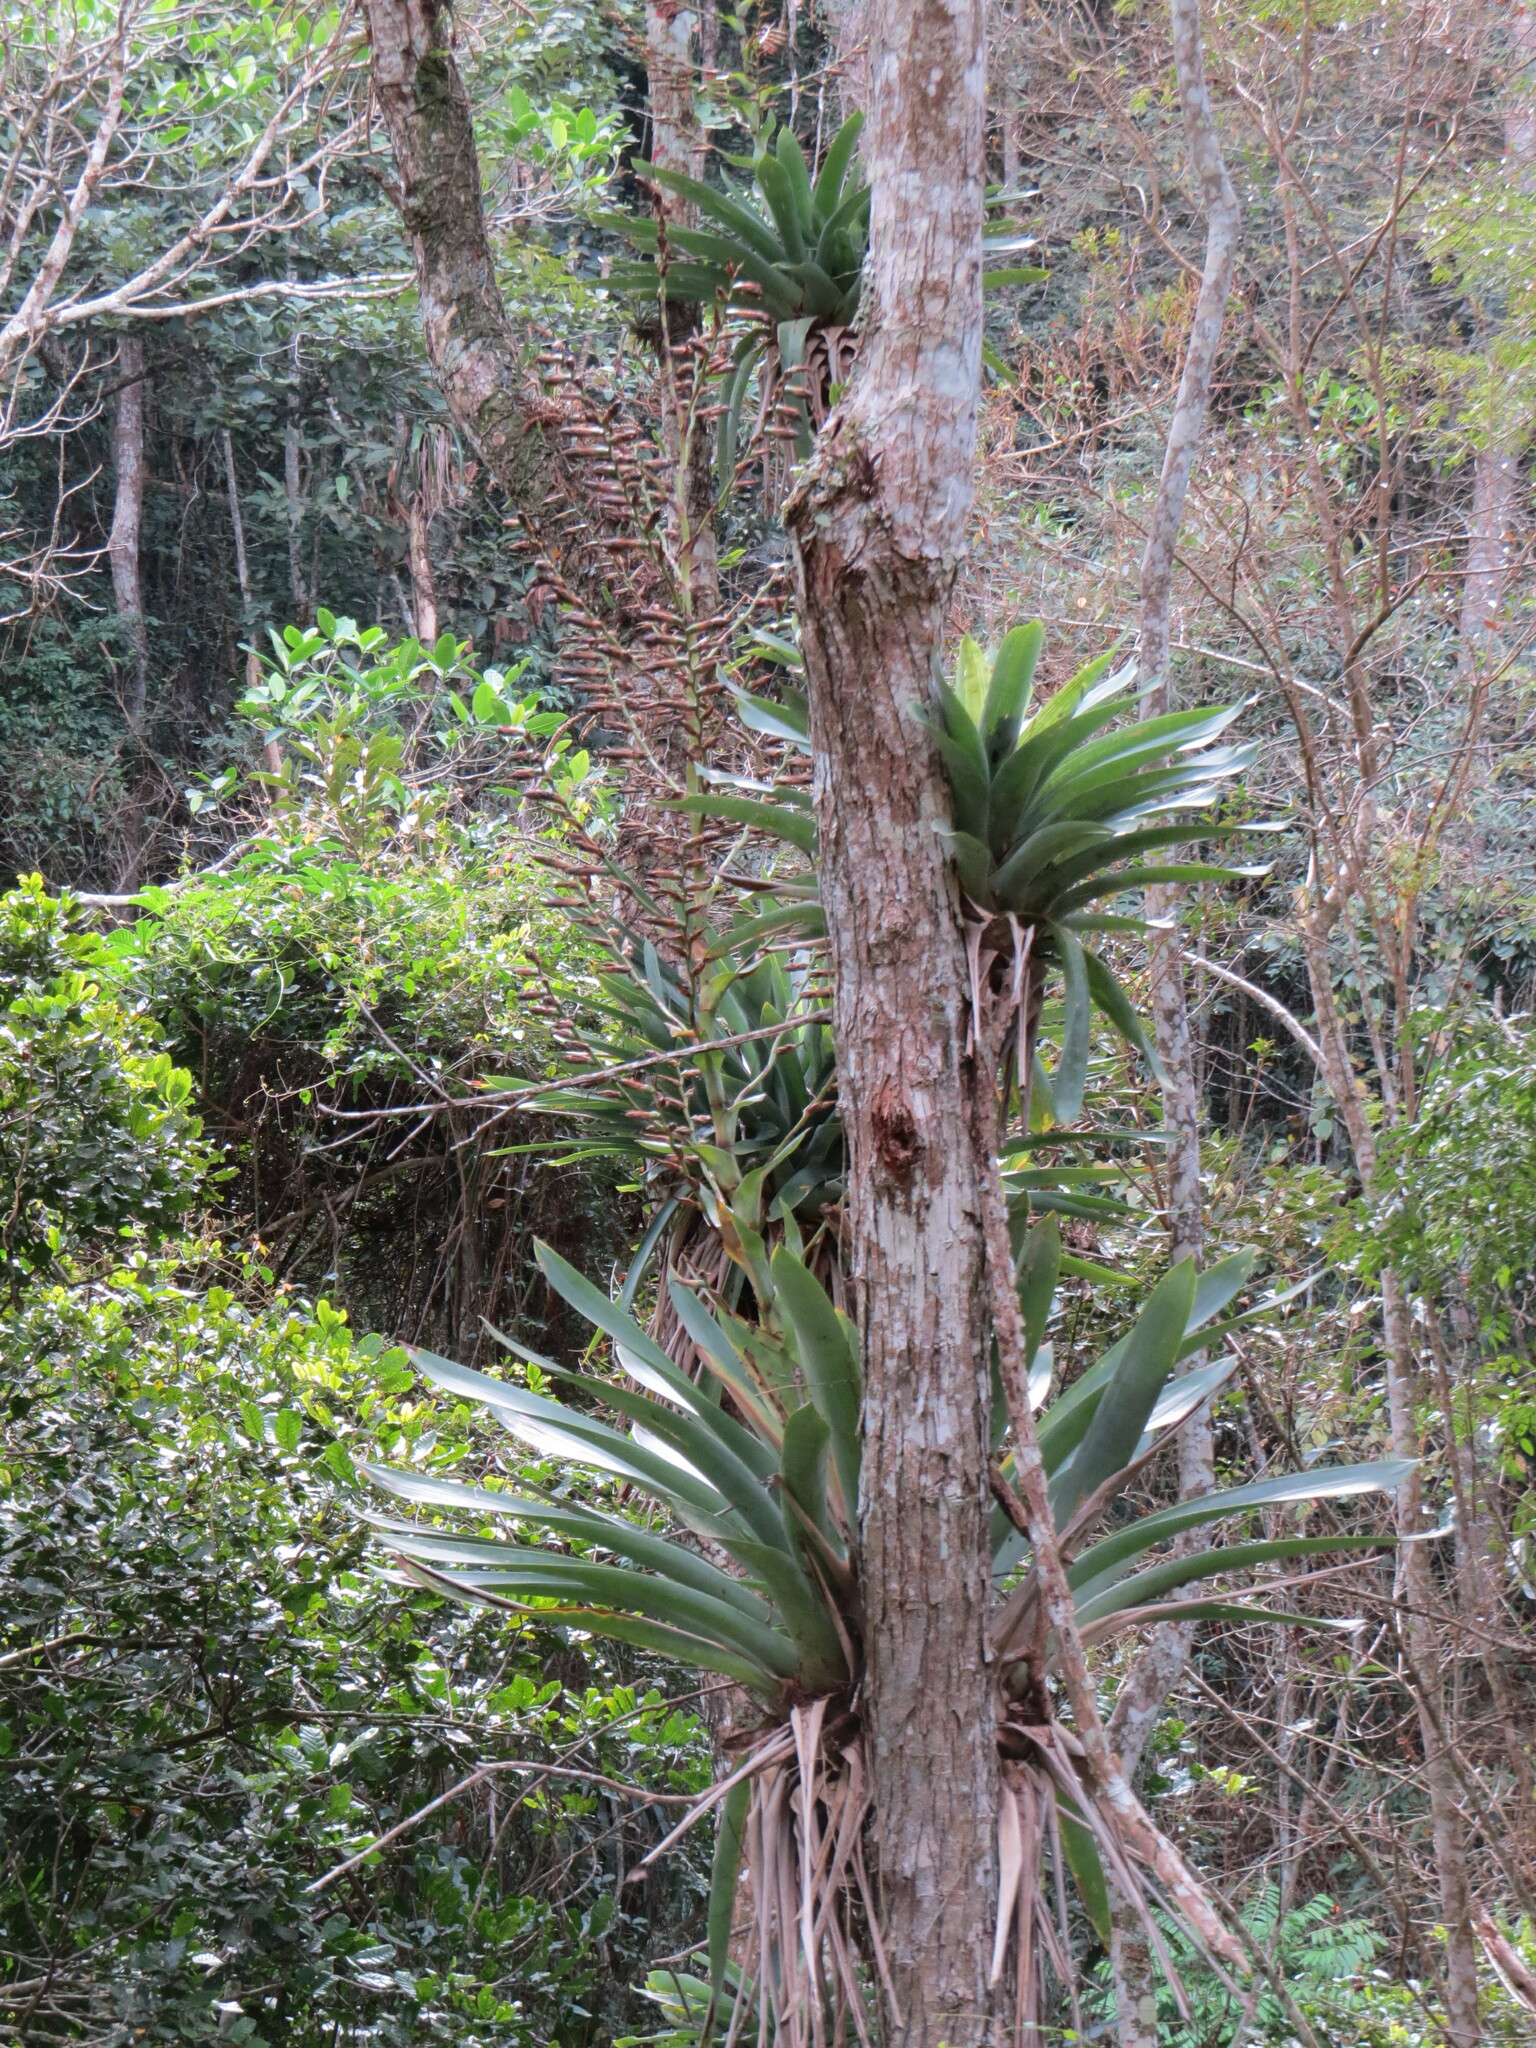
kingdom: Plantae
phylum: Tracheophyta
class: Liliopsida
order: Poales
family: Bromeliaceae
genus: Vriesea
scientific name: Vriesea gigantea
